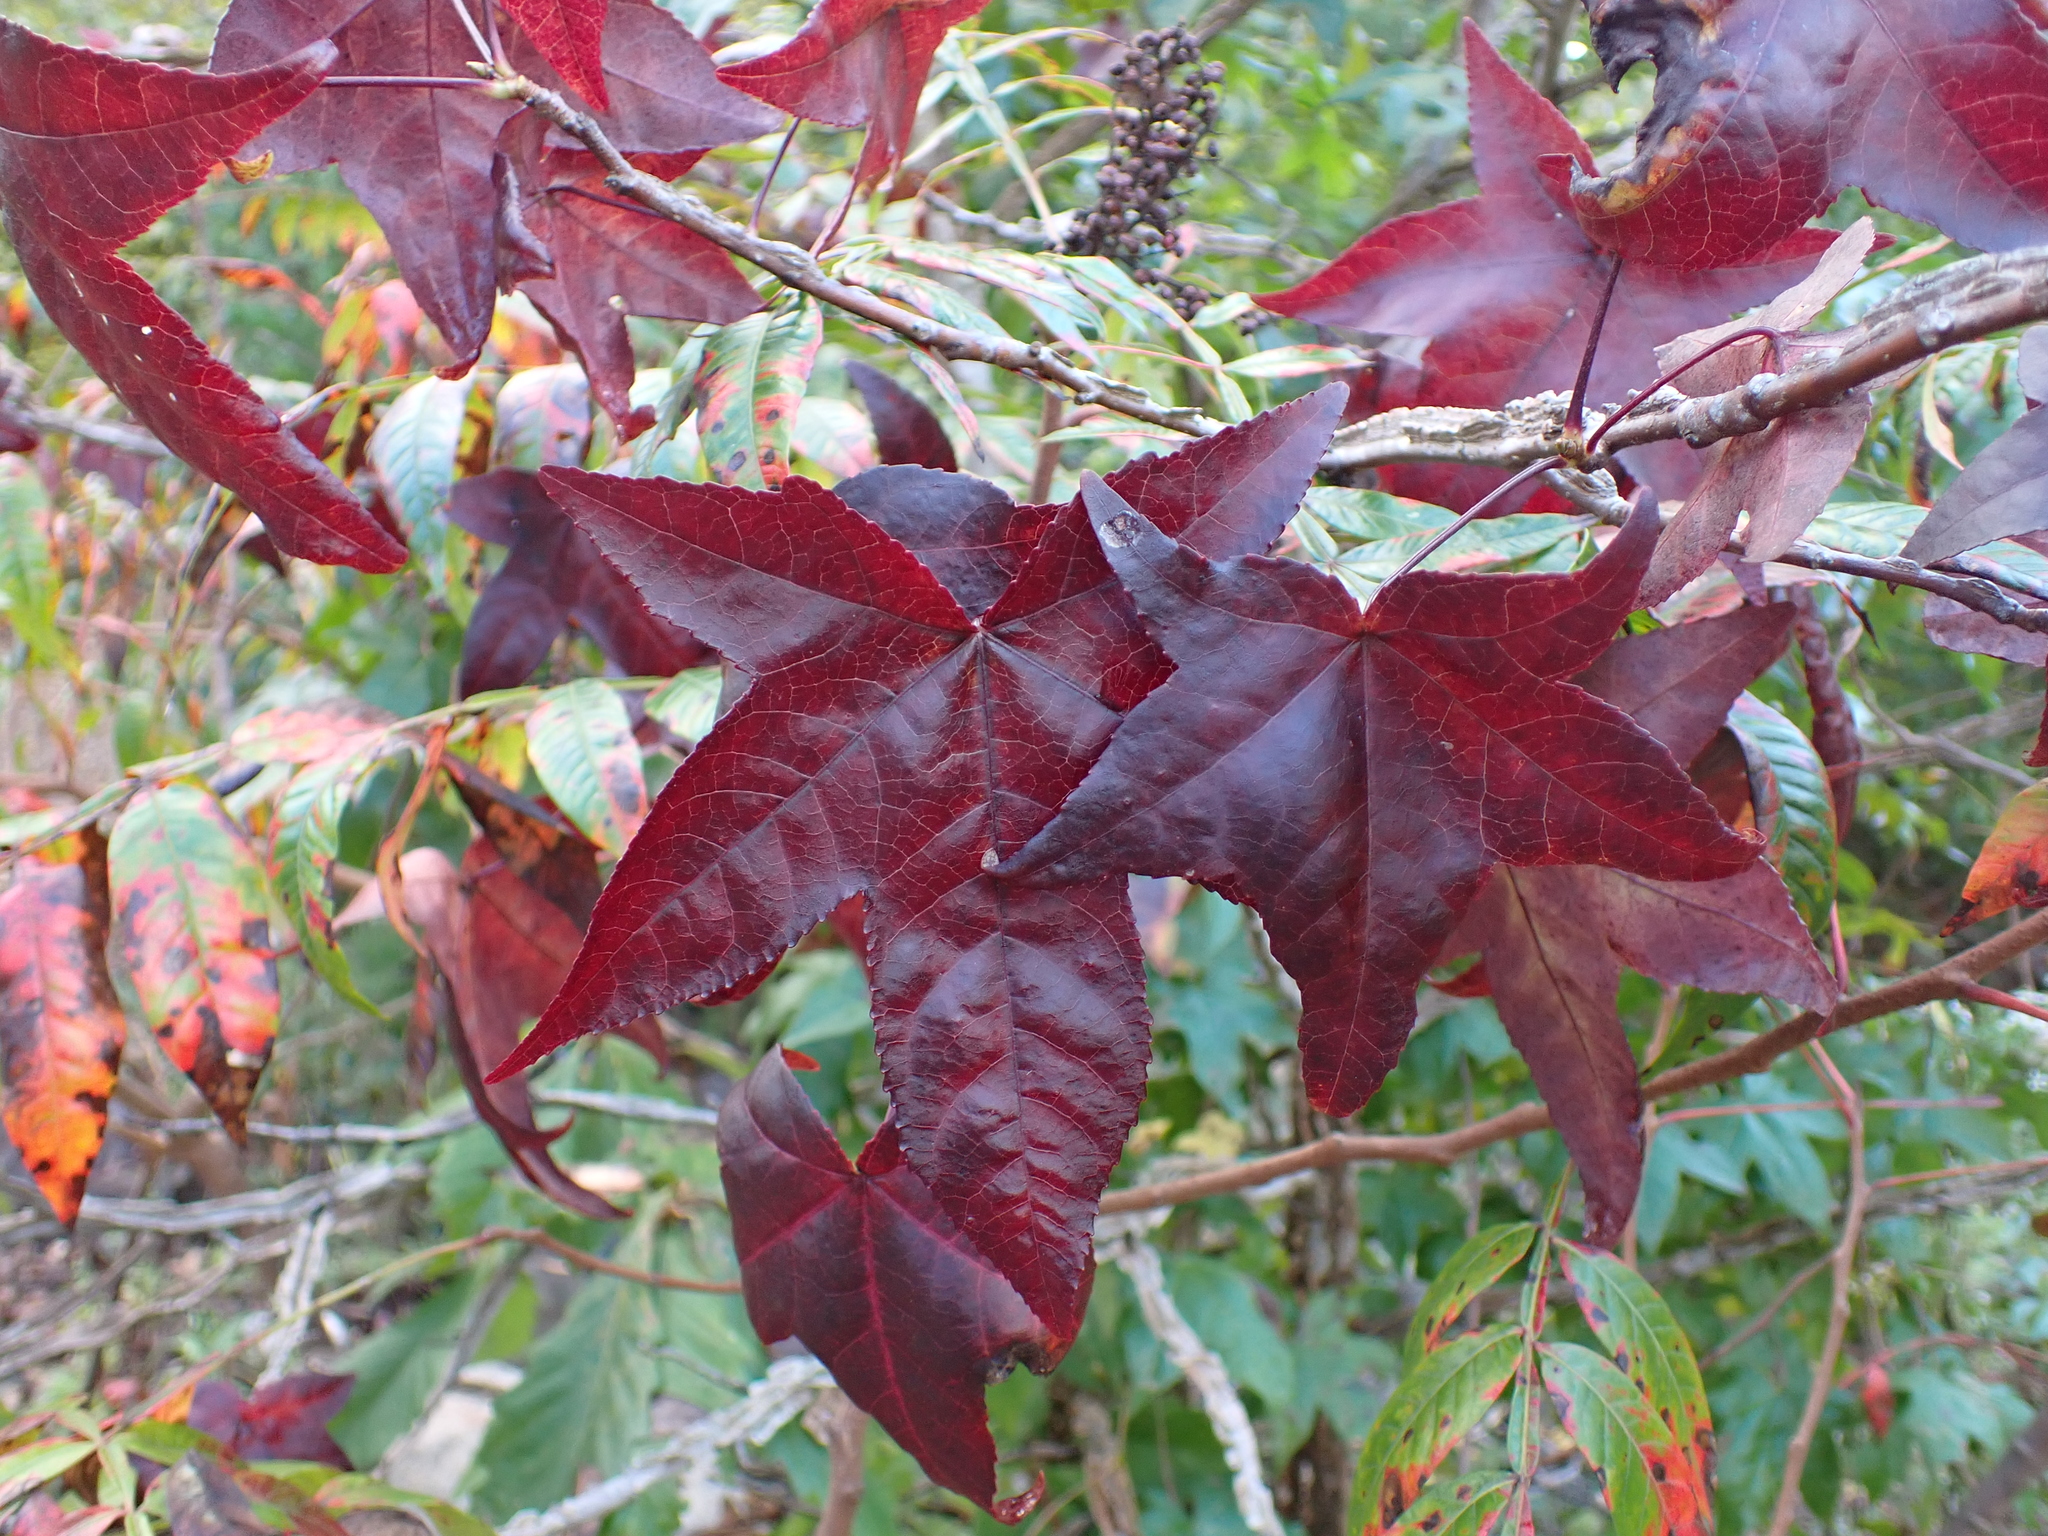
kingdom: Plantae
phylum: Tracheophyta
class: Magnoliopsida
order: Saxifragales
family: Altingiaceae
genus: Liquidambar
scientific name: Liquidambar styraciflua
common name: Sweet gum
